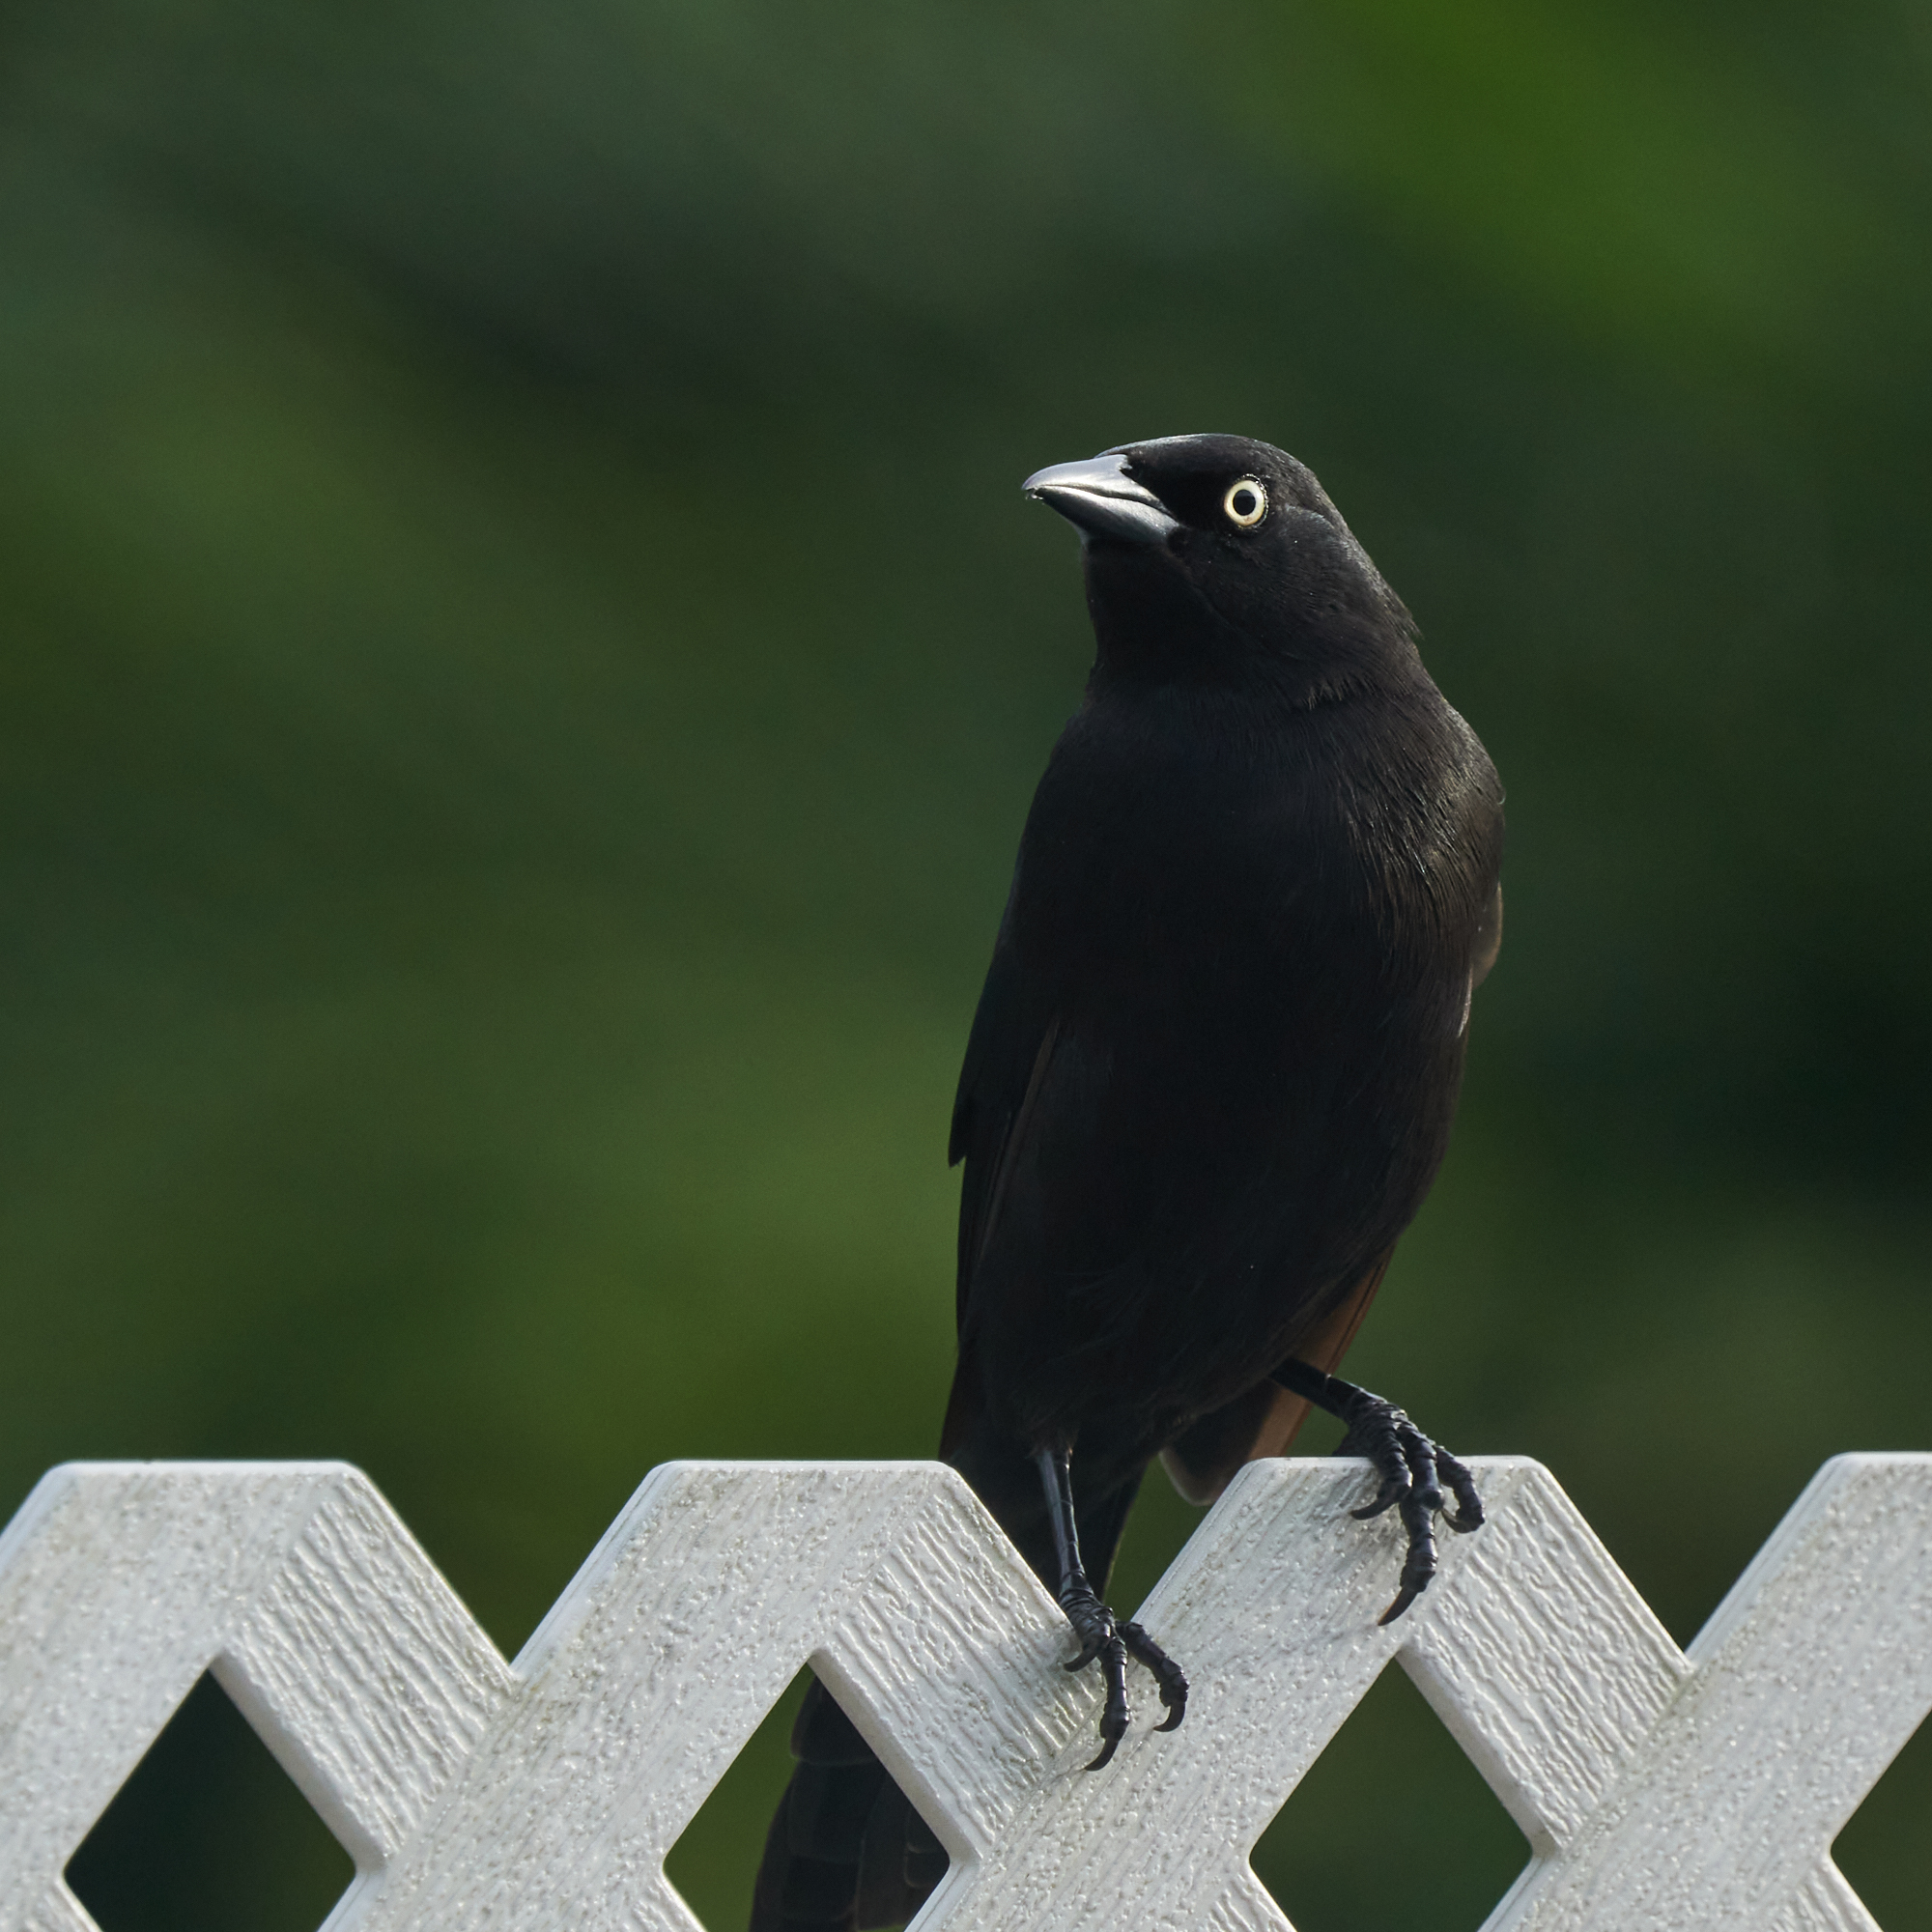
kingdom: Animalia
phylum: Chordata
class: Aves
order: Passeriformes
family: Icteridae
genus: Quiscalus
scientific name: Quiscalus lugubris
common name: Carib grackle
